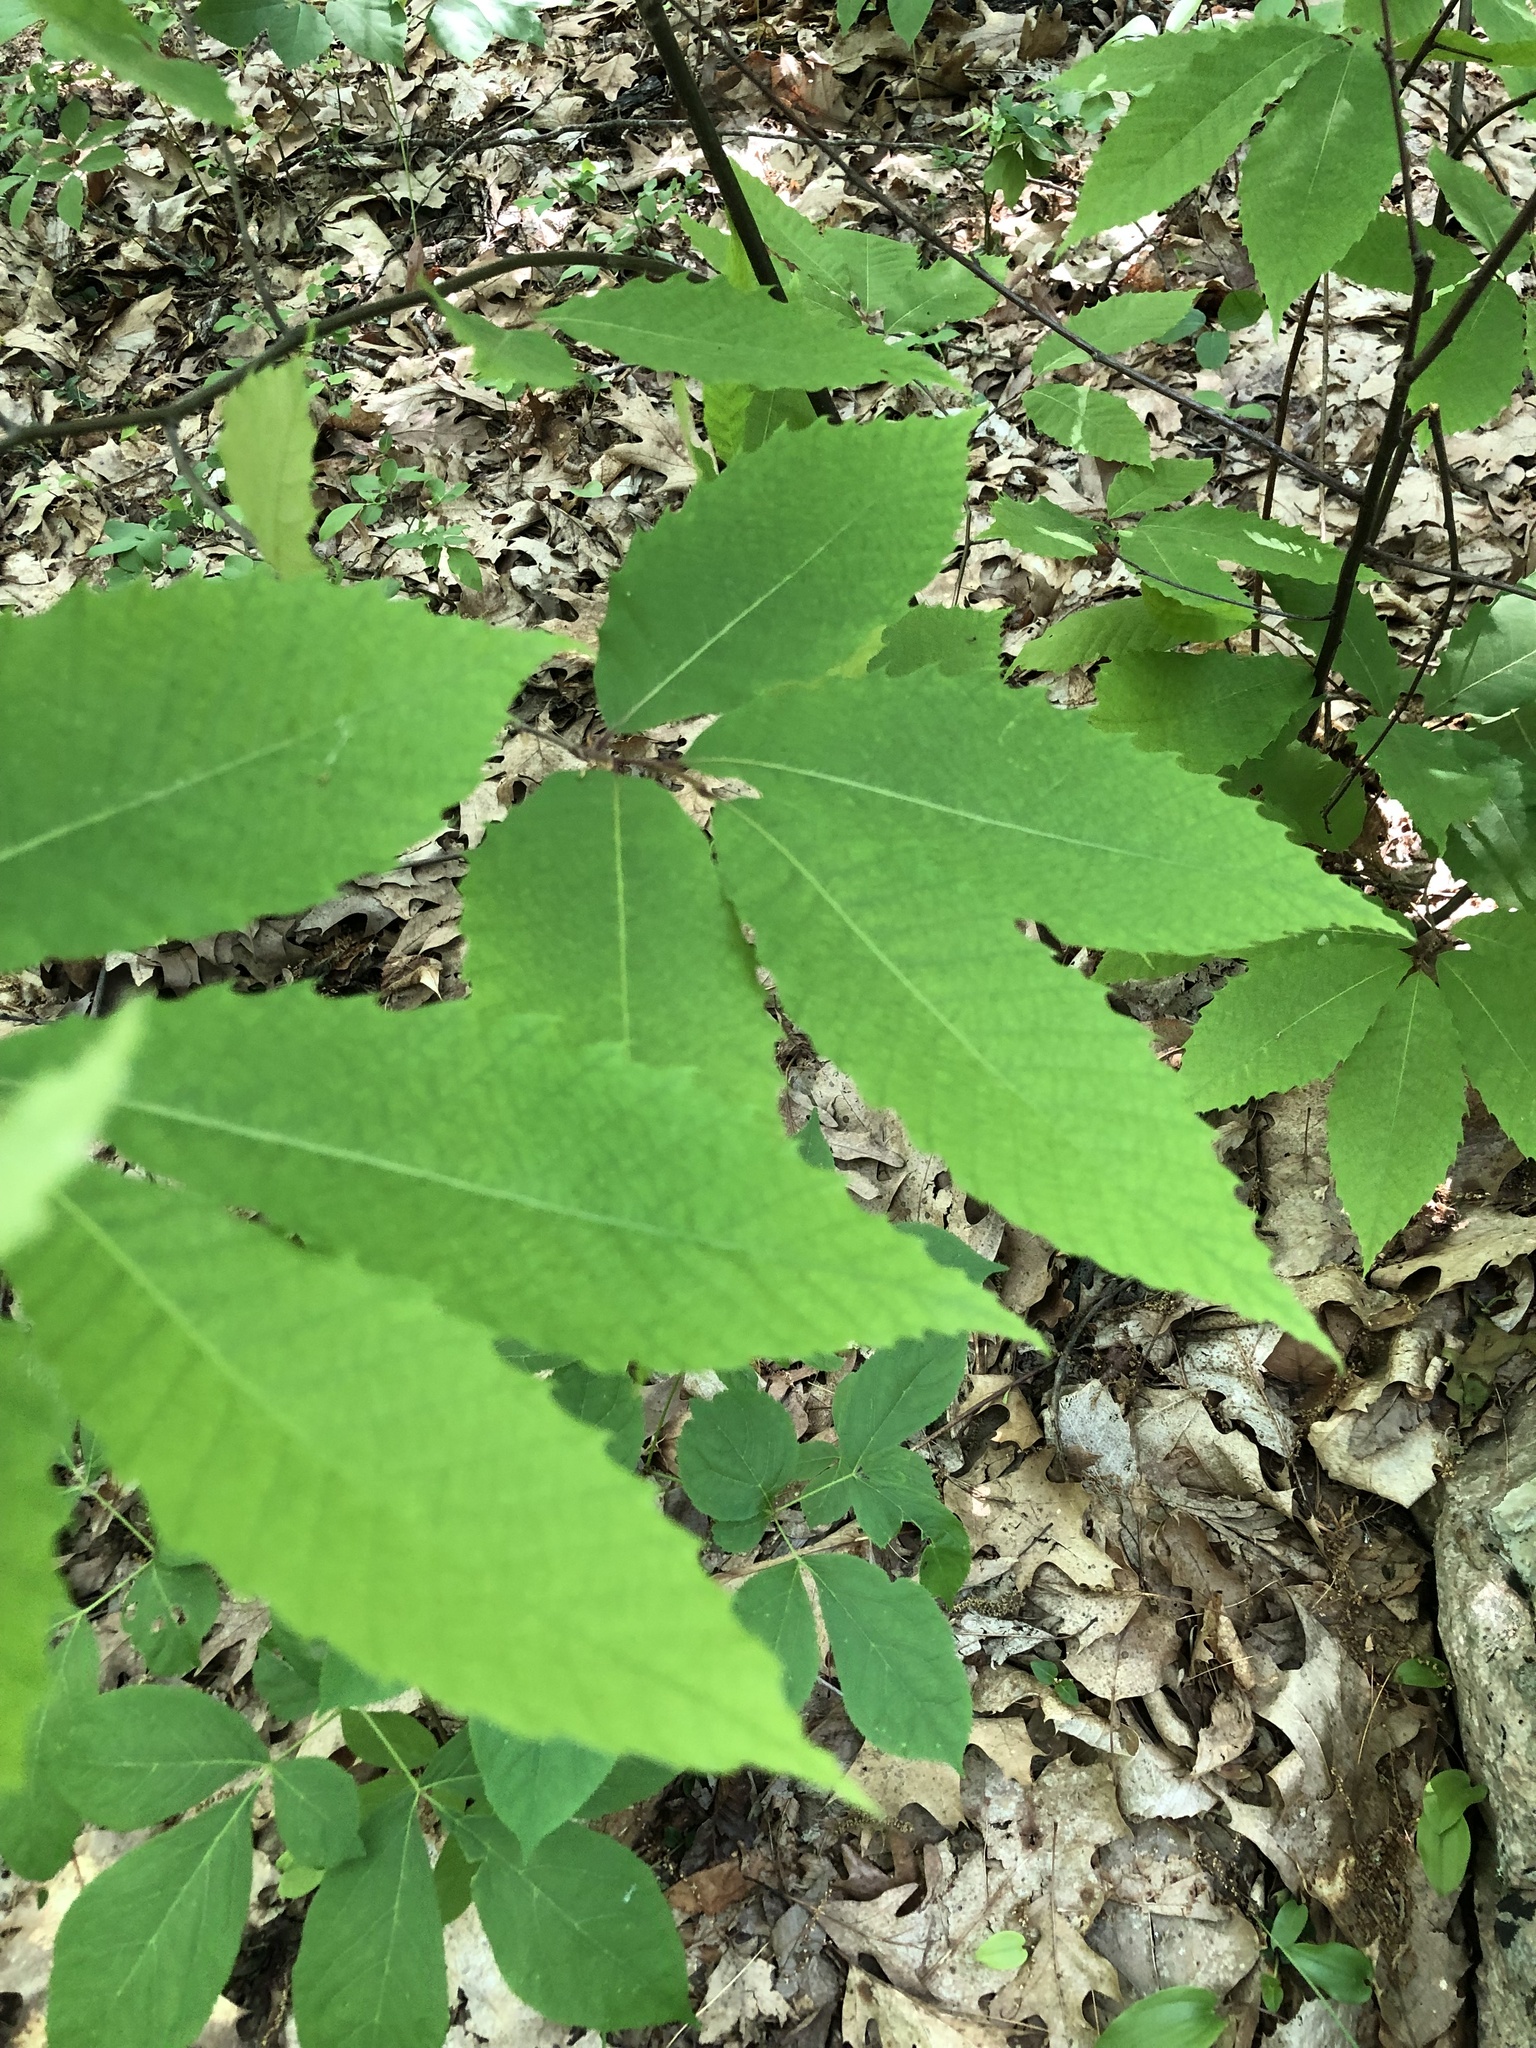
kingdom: Plantae
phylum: Tracheophyta
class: Magnoliopsida
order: Fagales
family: Fagaceae
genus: Castanea
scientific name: Castanea dentata
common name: American chestnut
